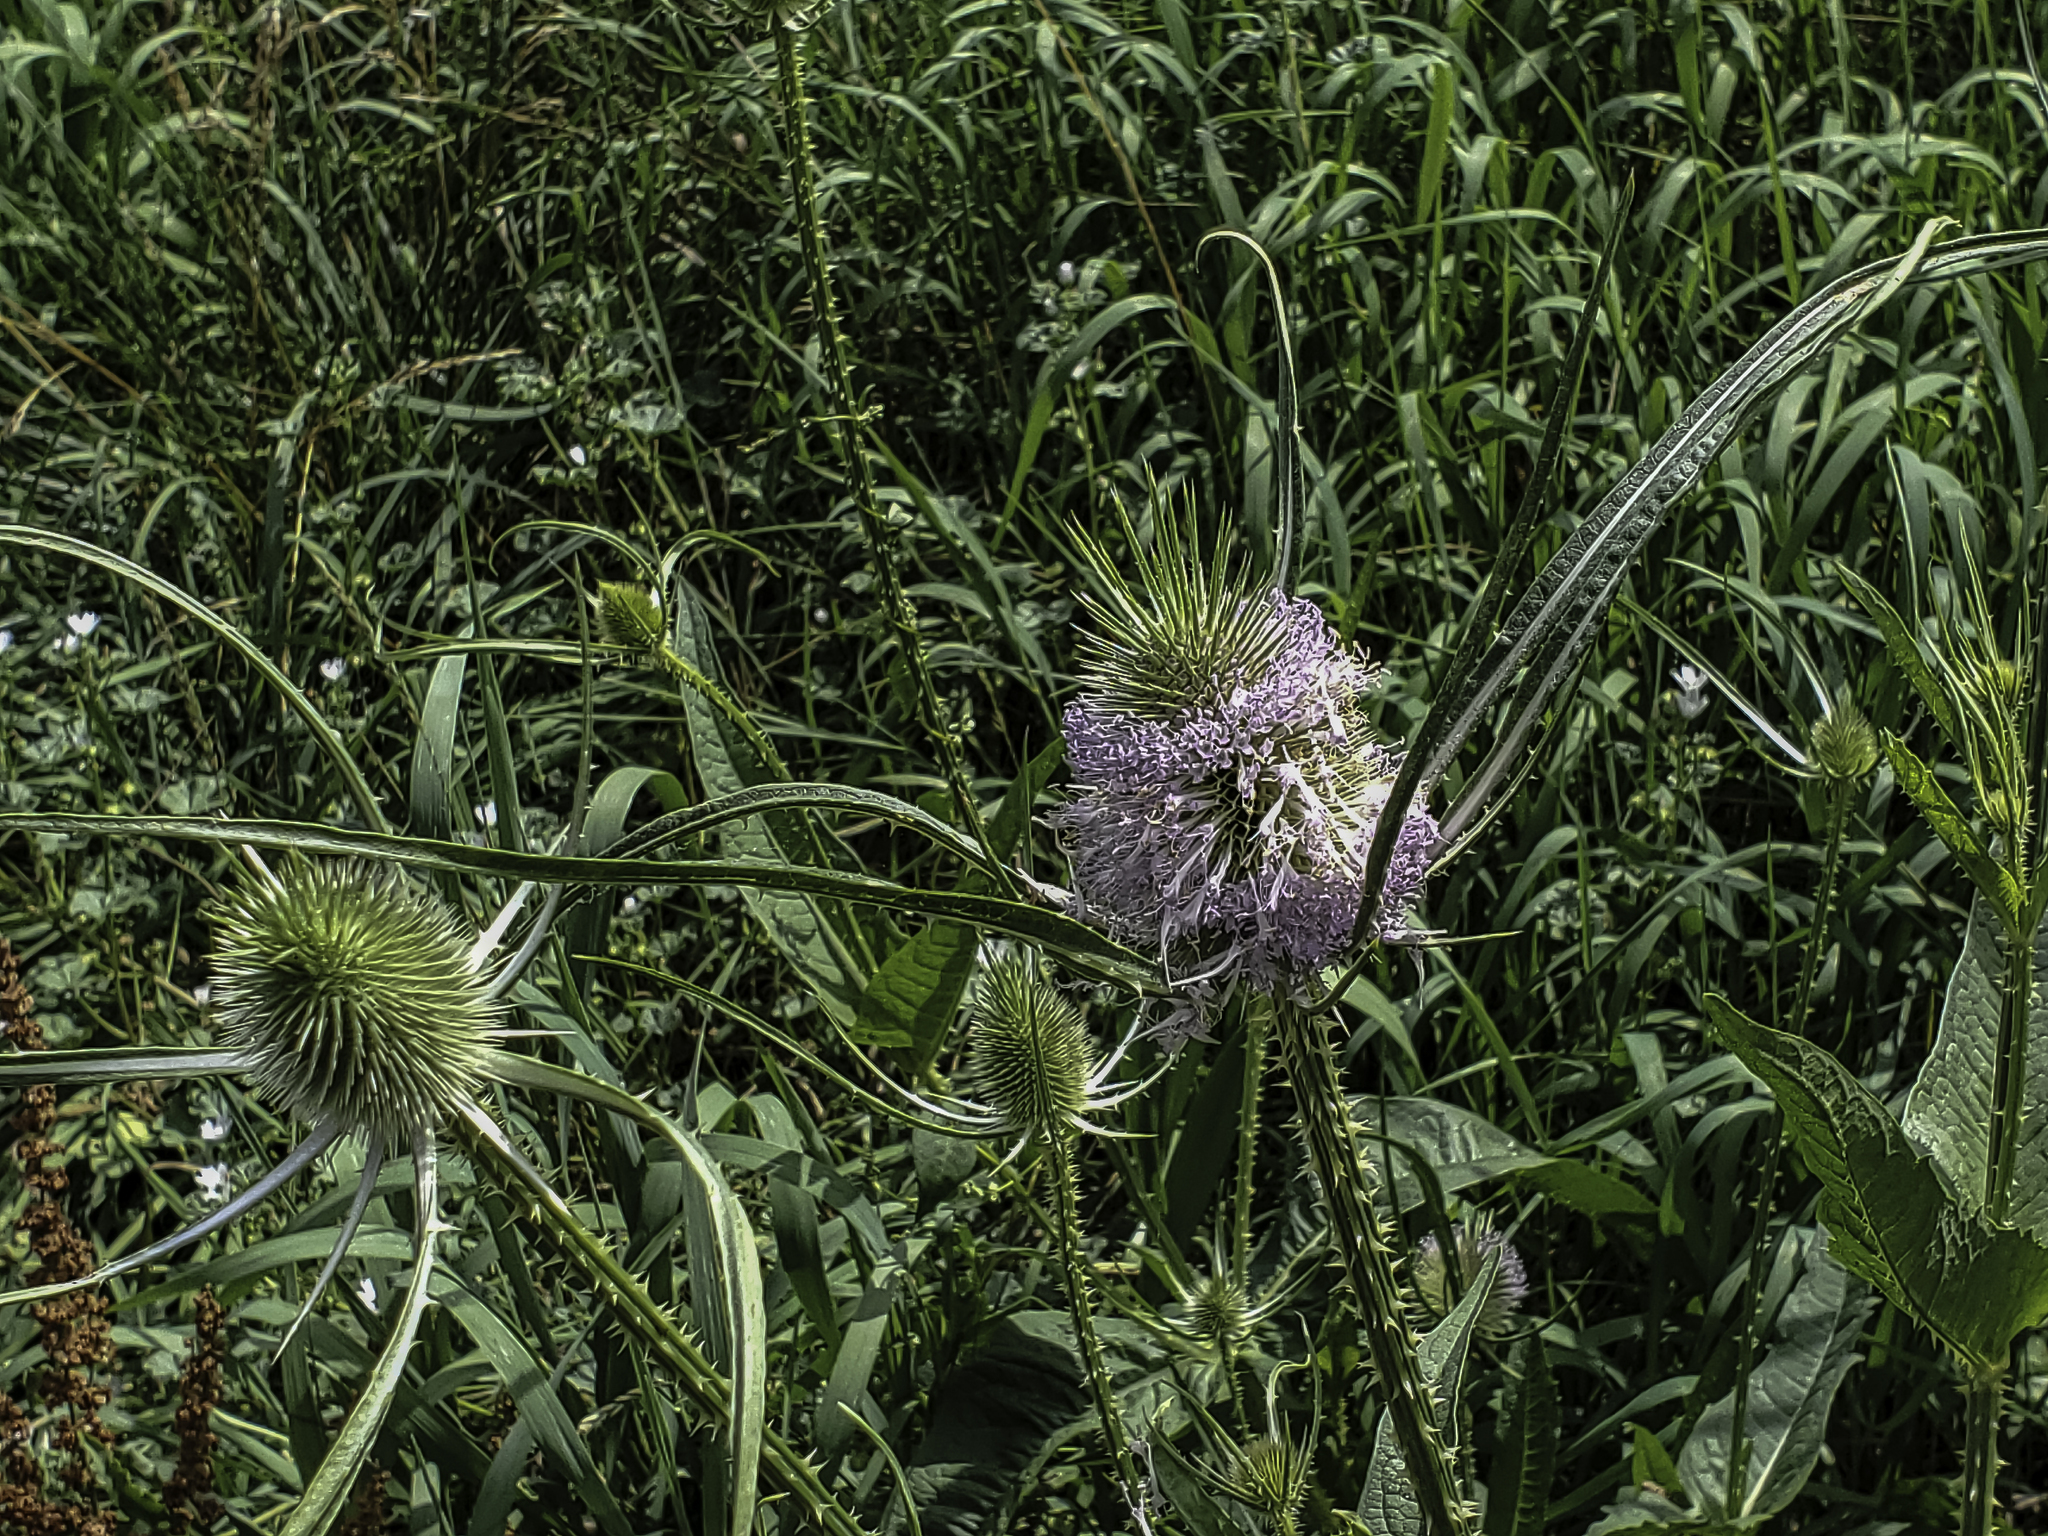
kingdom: Plantae
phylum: Tracheophyta
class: Magnoliopsida
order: Dipsacales
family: Caprifoliaceae
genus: Dipsacus
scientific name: Dipsacus fullonum
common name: Teasel
